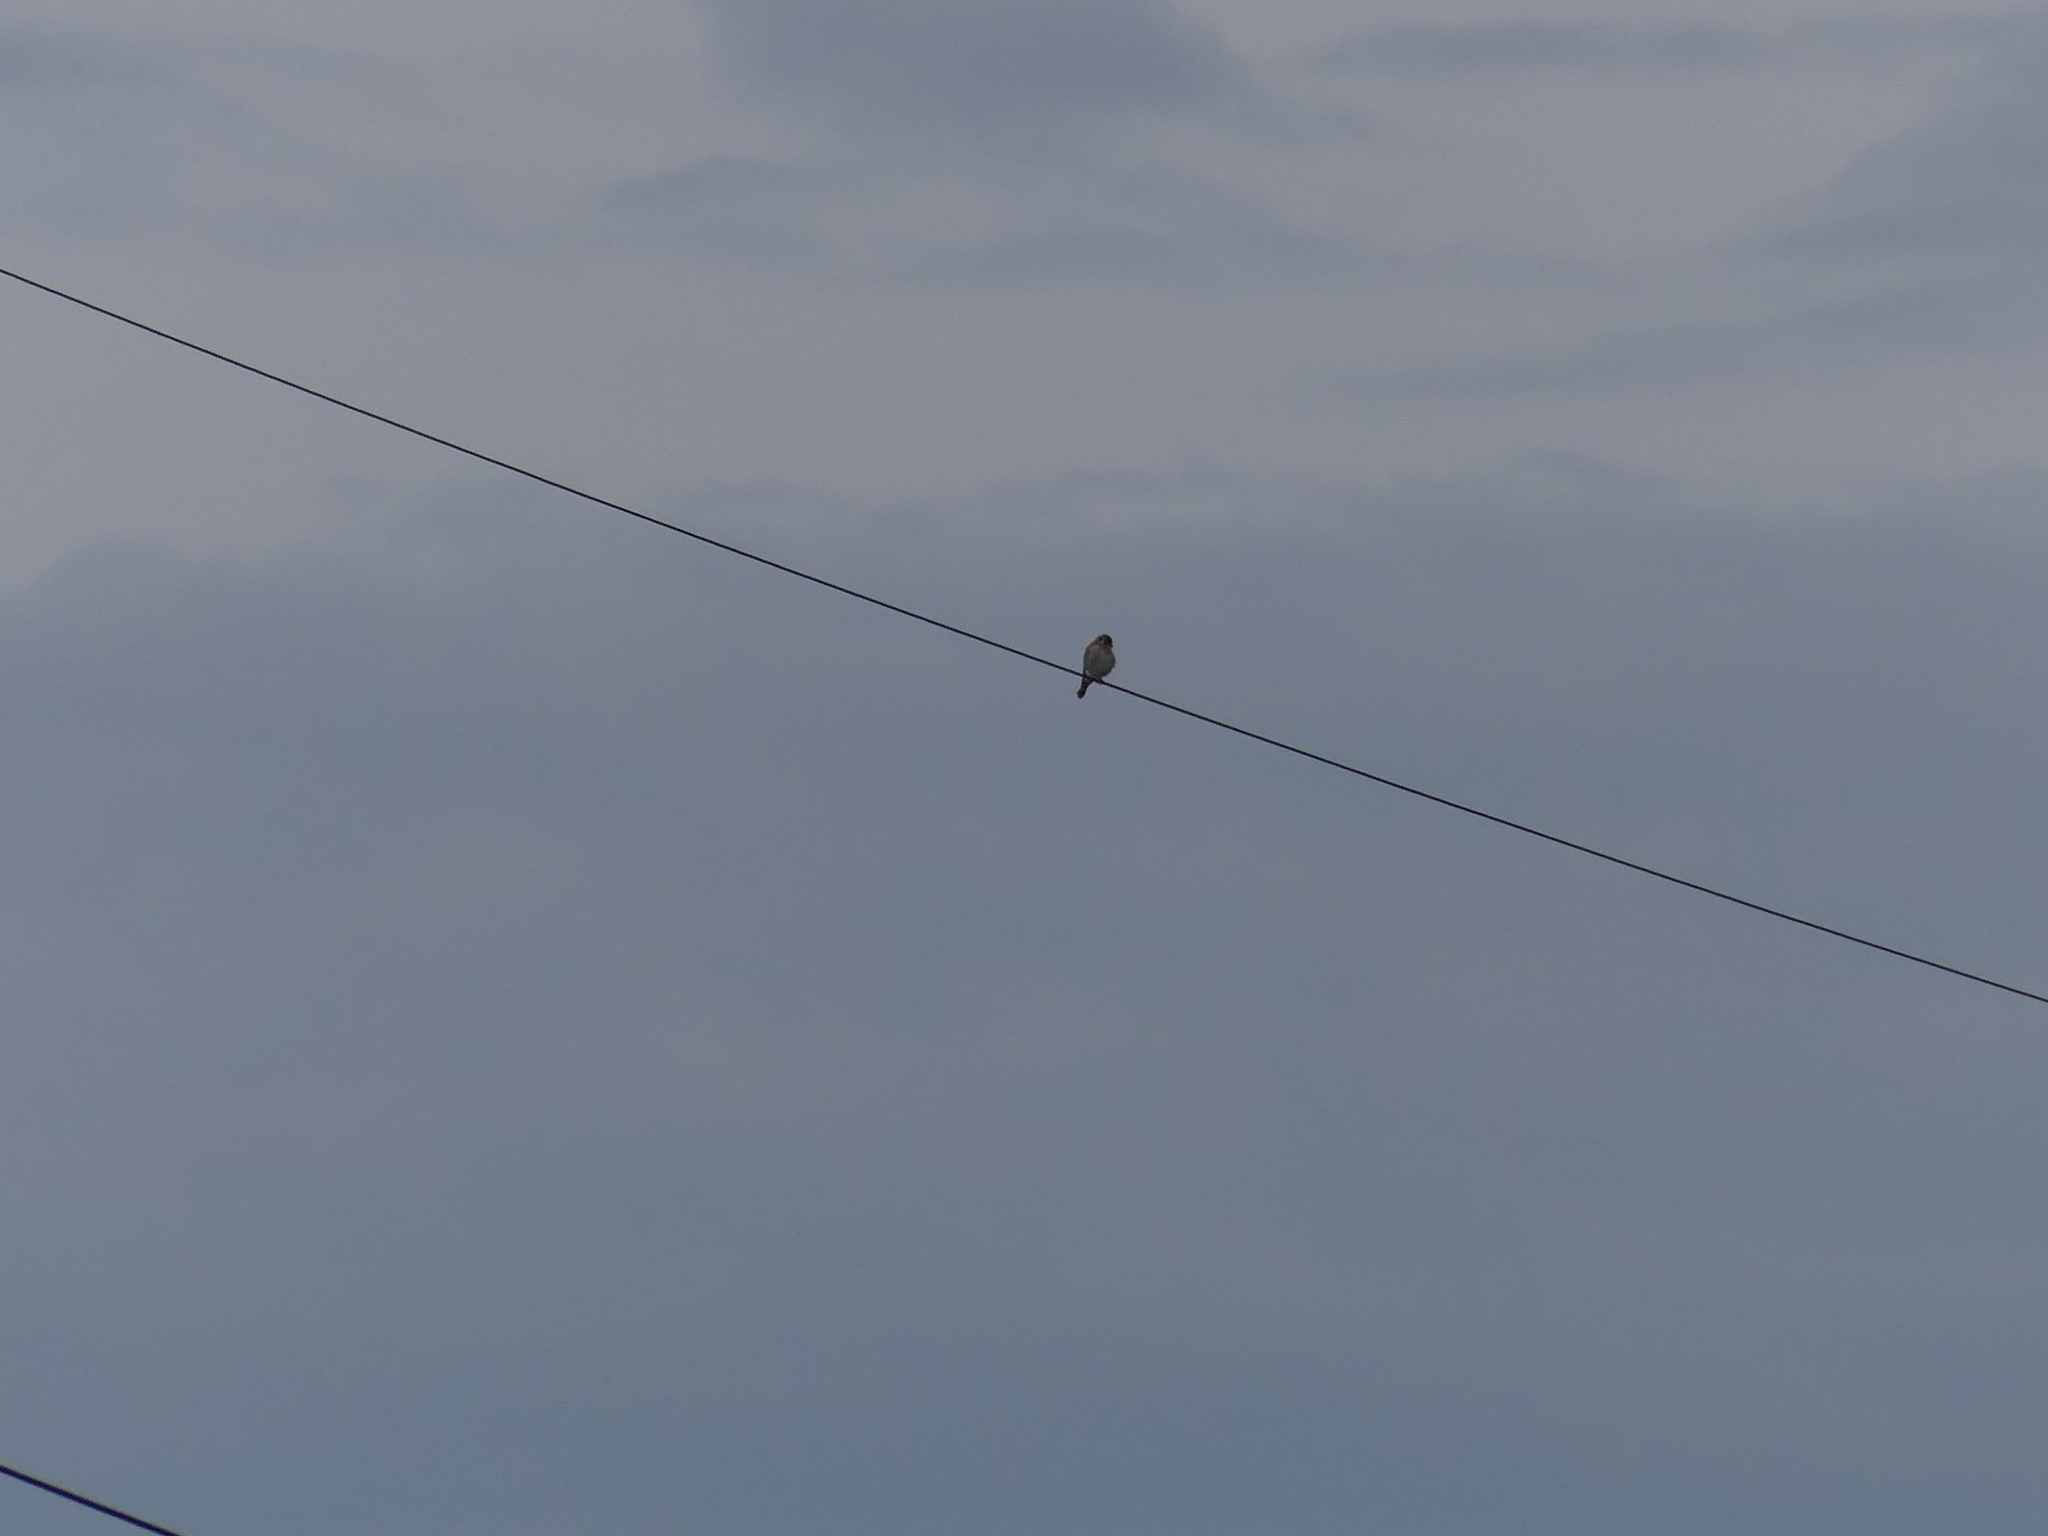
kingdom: Animalia
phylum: Chordata
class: Aves
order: Falconiformes
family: Falconidae
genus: Falco
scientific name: Falco sparverius
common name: American kestrel
